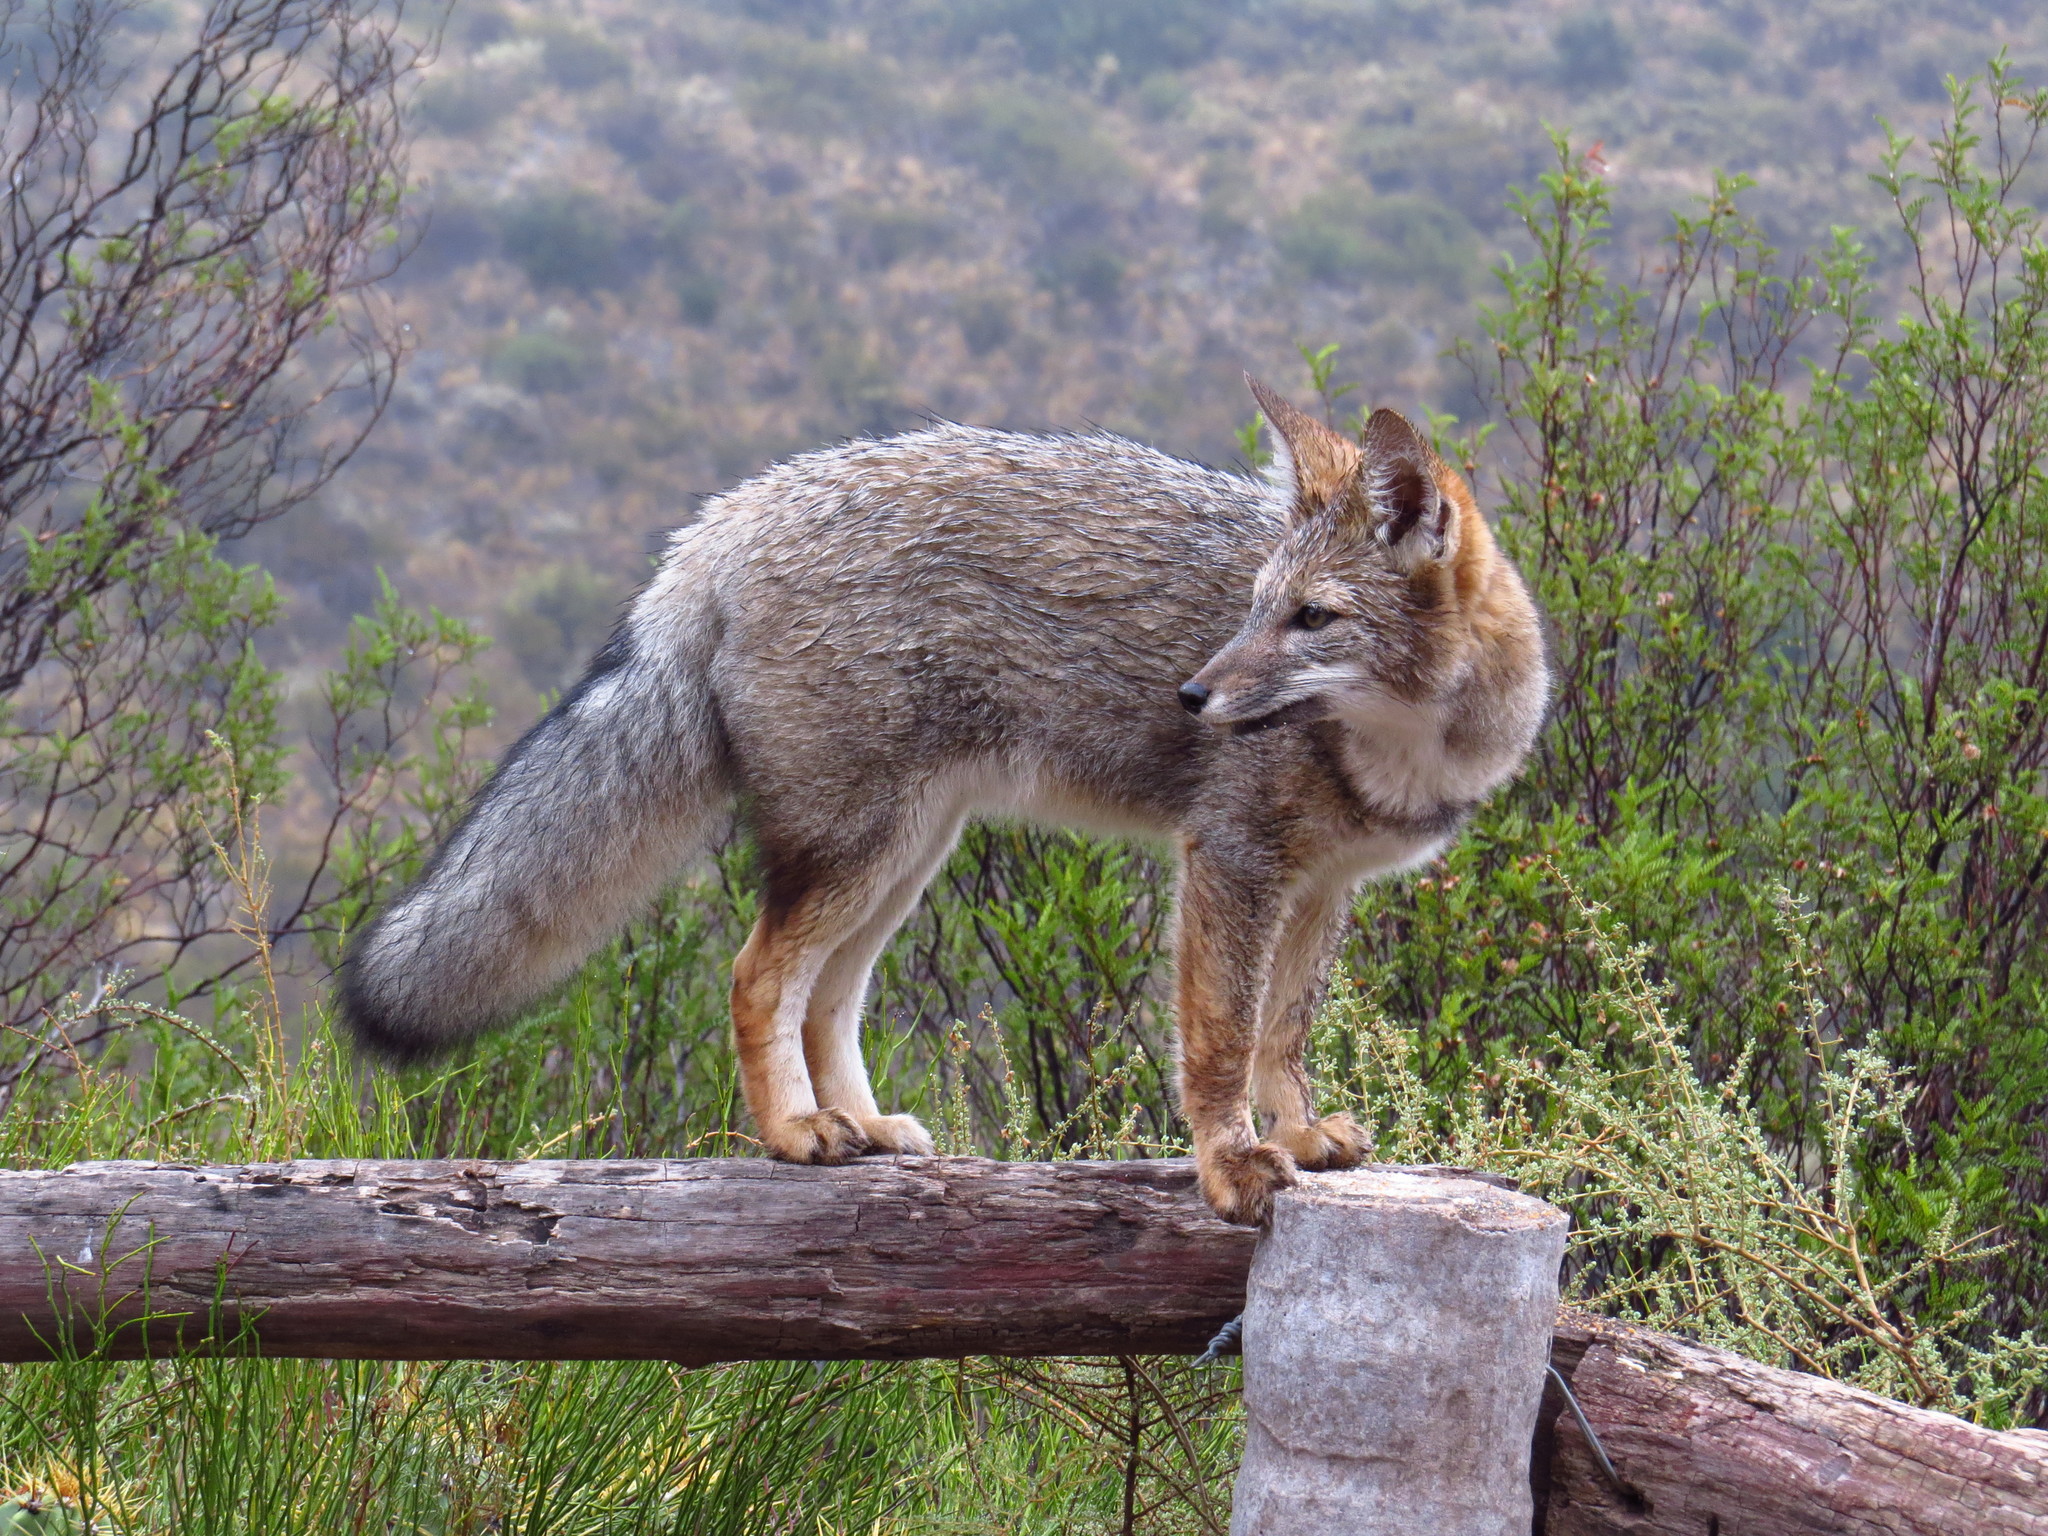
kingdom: Animalia
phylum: Chordata
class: Mammalia
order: Carnivora
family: Canidae
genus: Lycalopex
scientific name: Lycalopex gymnocercus
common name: Pampas fox
